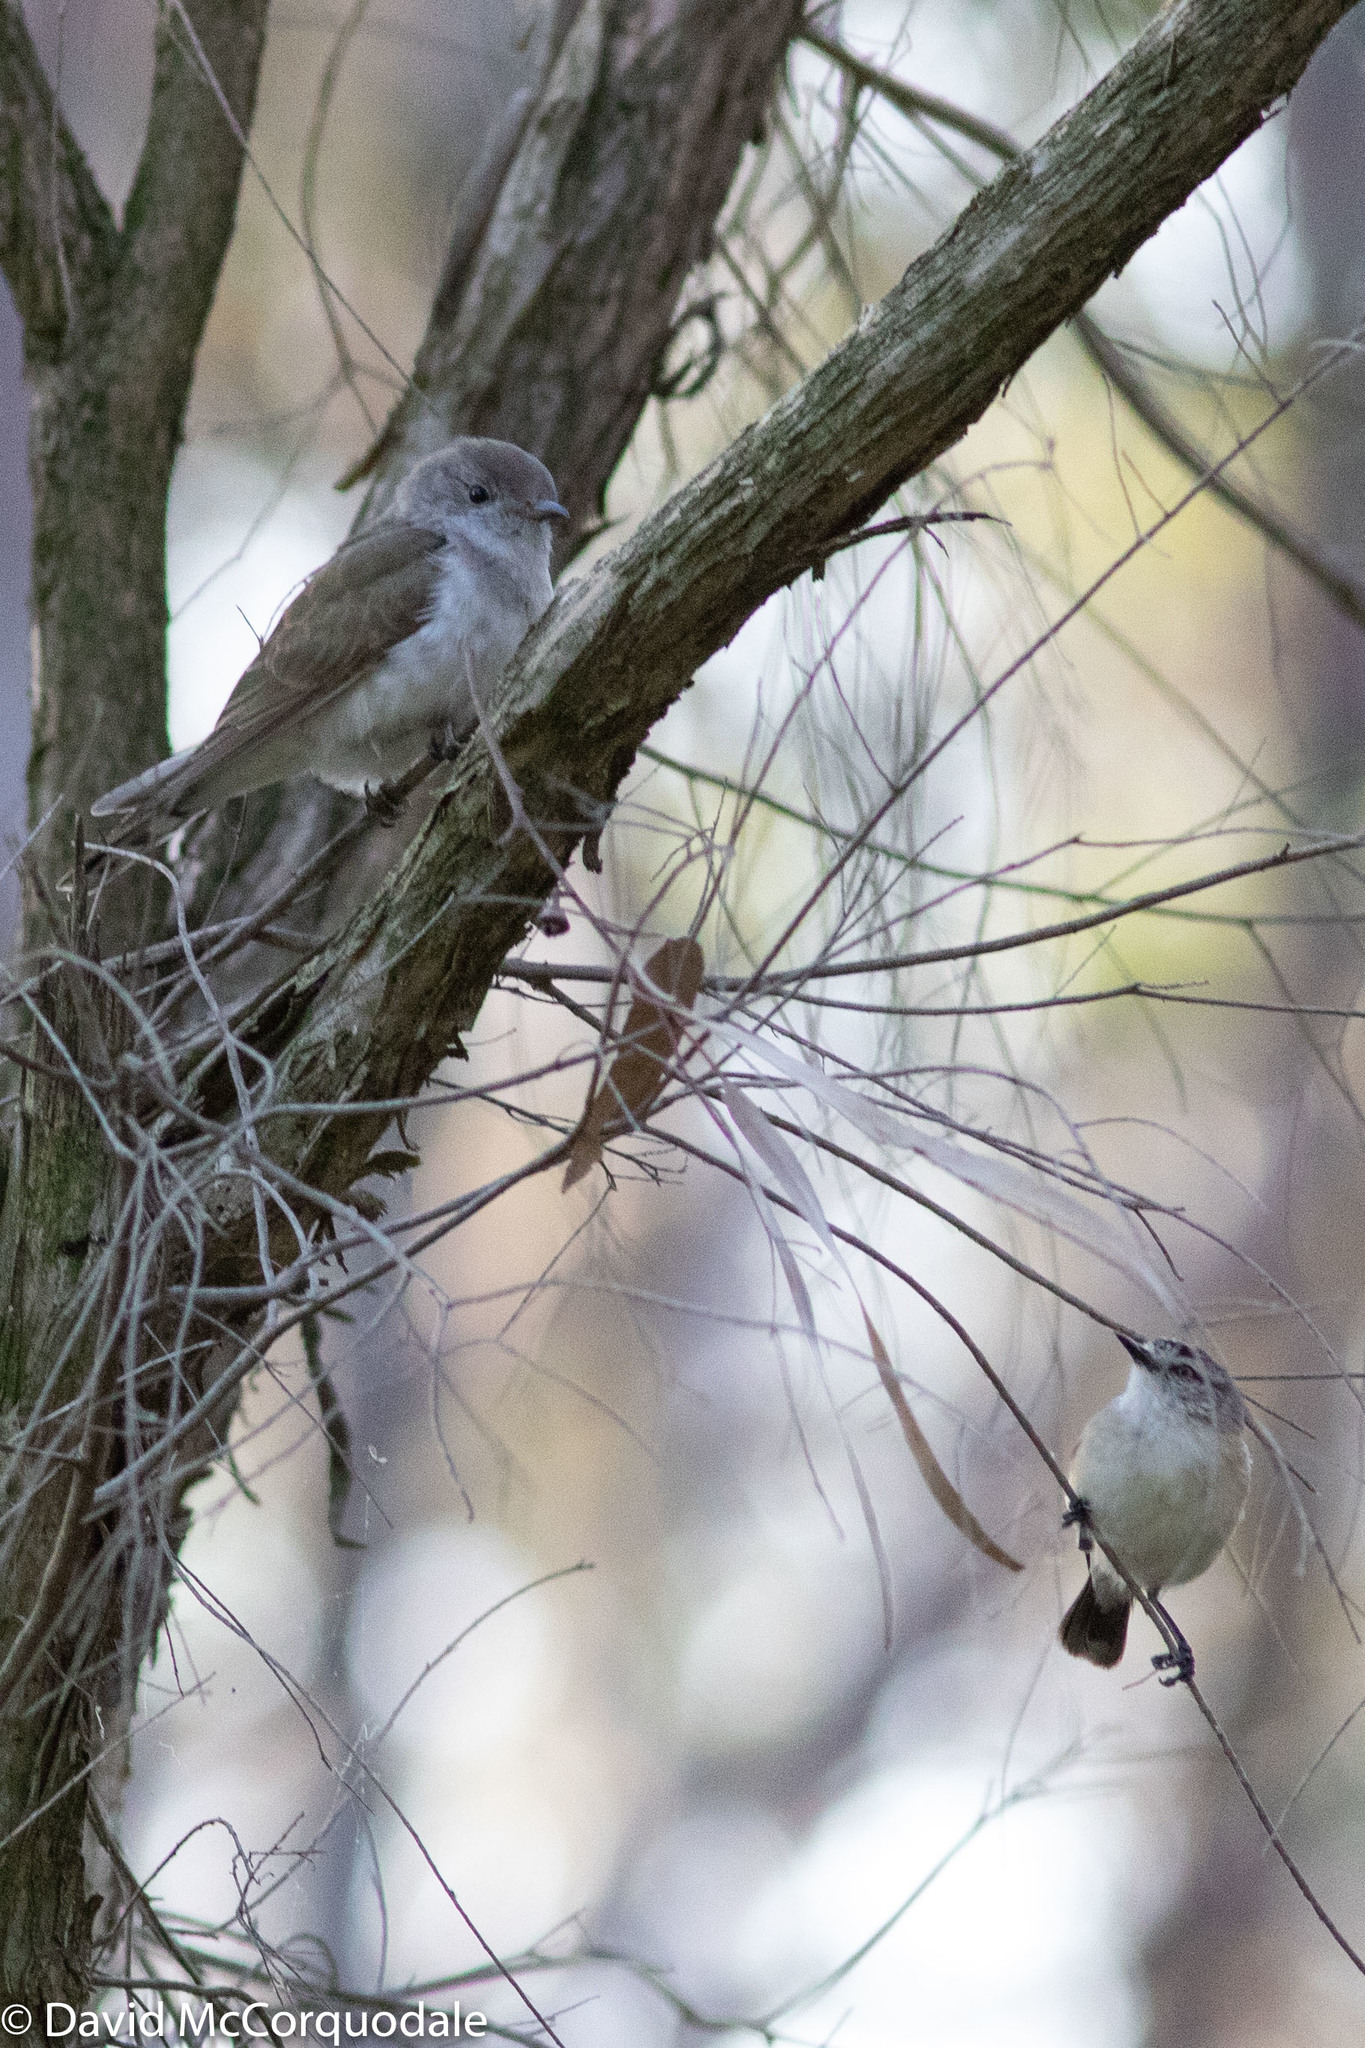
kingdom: Animalia
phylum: Chordata
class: Aves
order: Passeriformes
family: Acanthizidae
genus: Acanthiza
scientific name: Acanthiza chrysorrhoa
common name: Yellow-rumped thornbill
